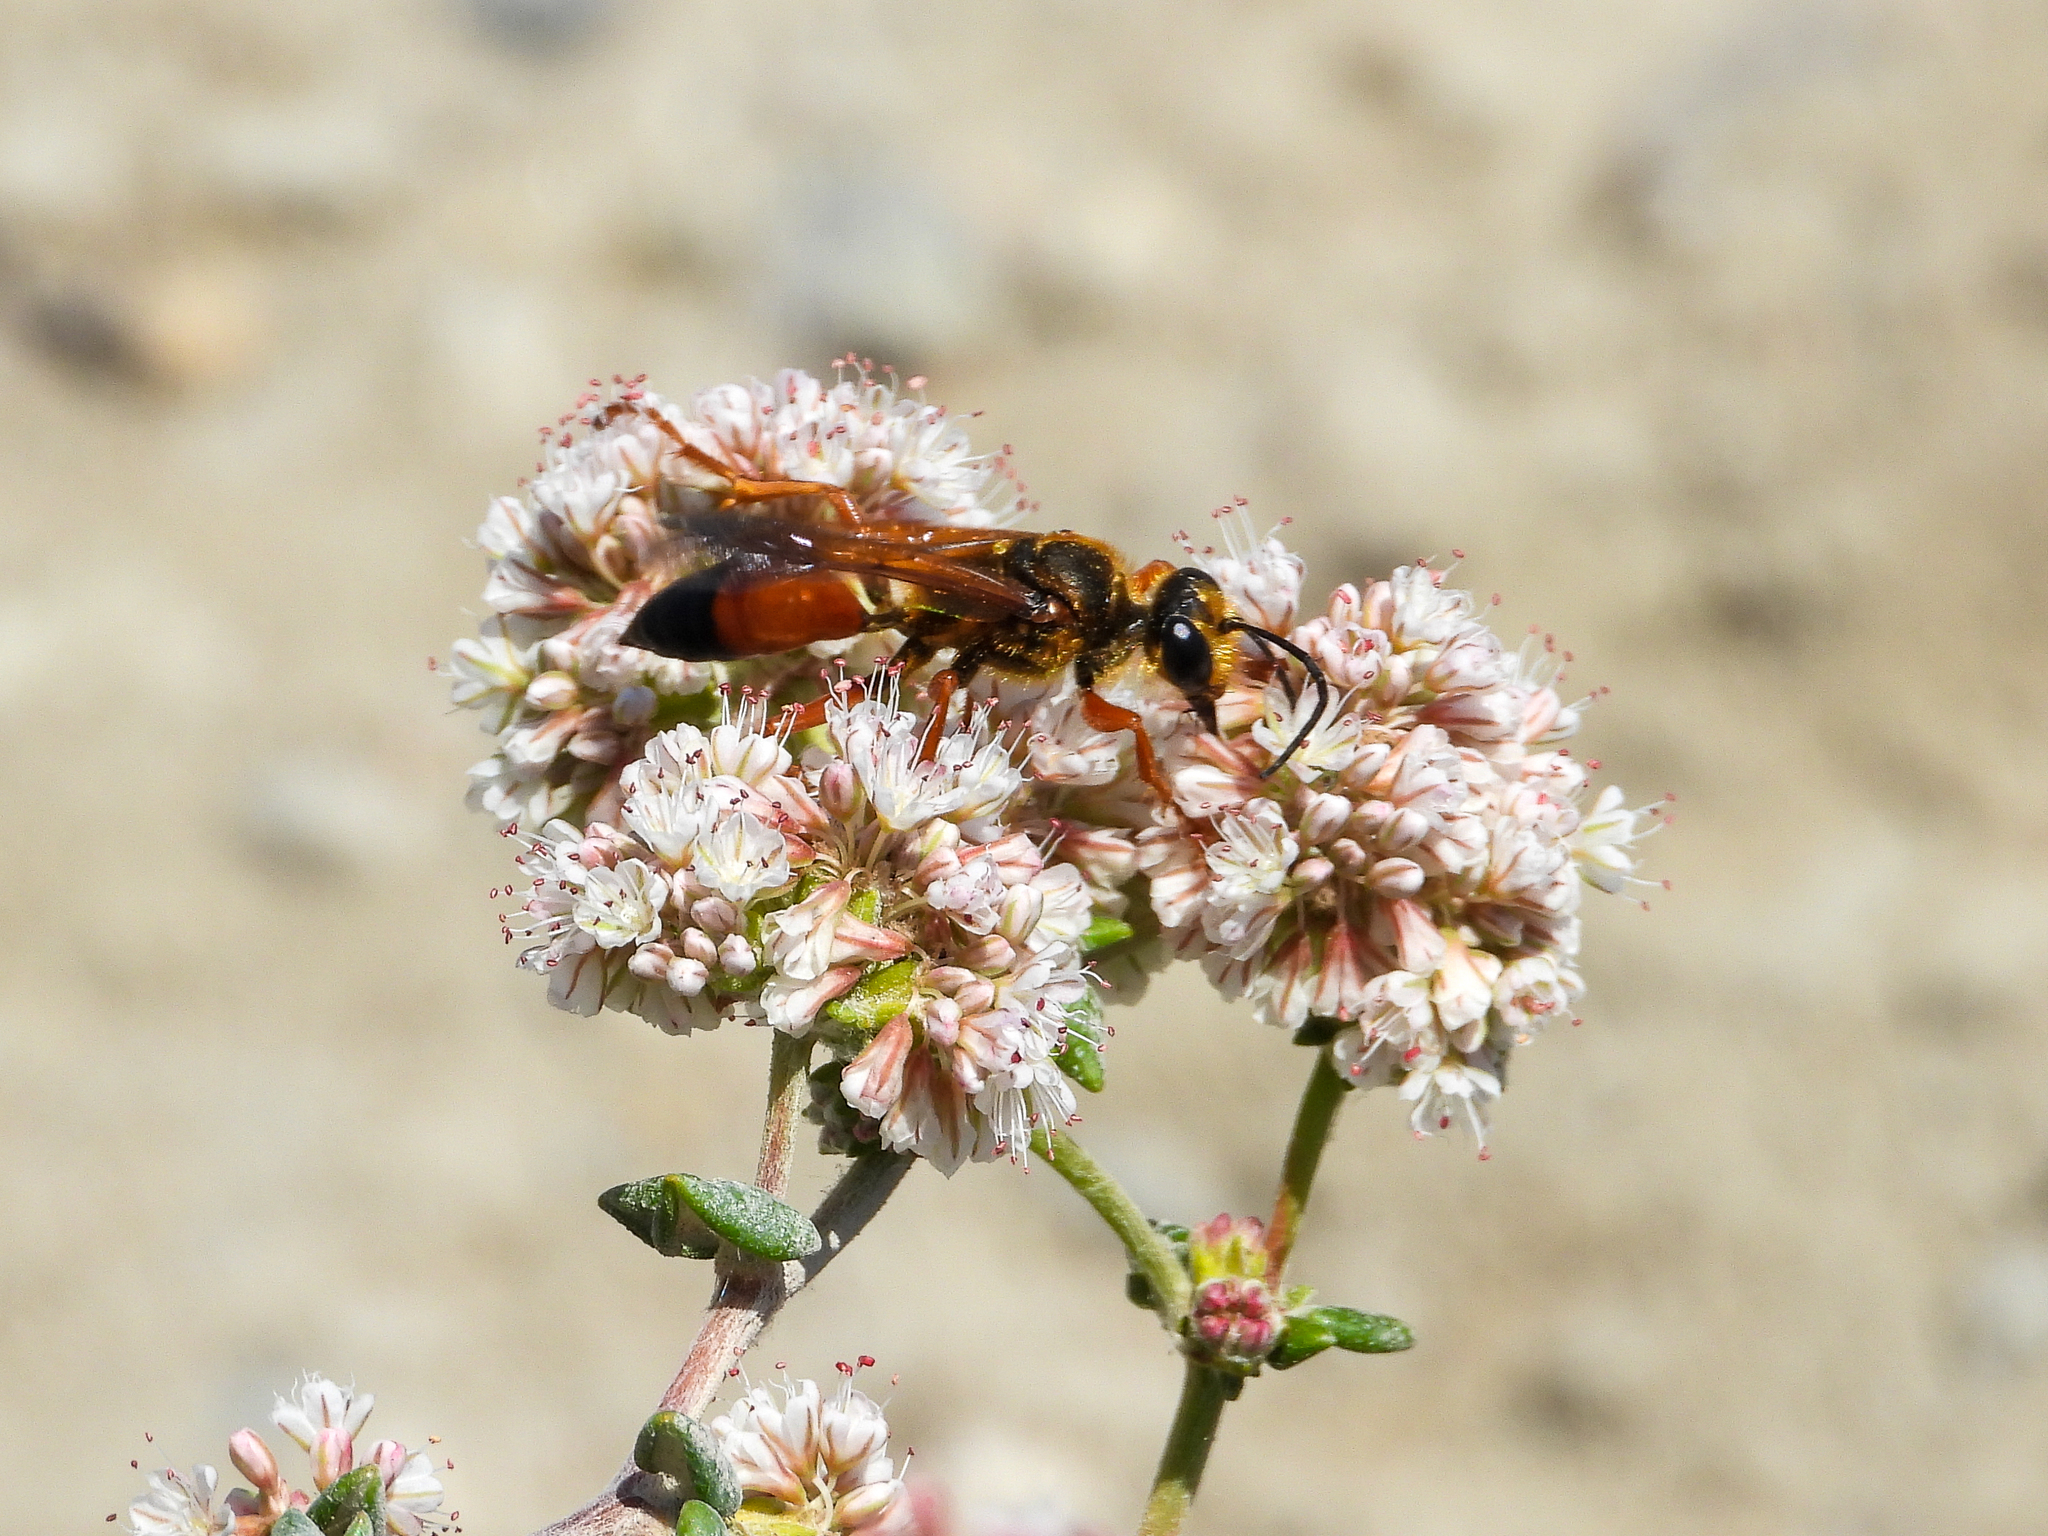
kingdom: Animalia
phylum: Arthropoda
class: Insecta
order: Hymenoptera
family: Sphecidae
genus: Sphex
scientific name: Sphex ichneumoneus
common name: Great golden digger wasp
